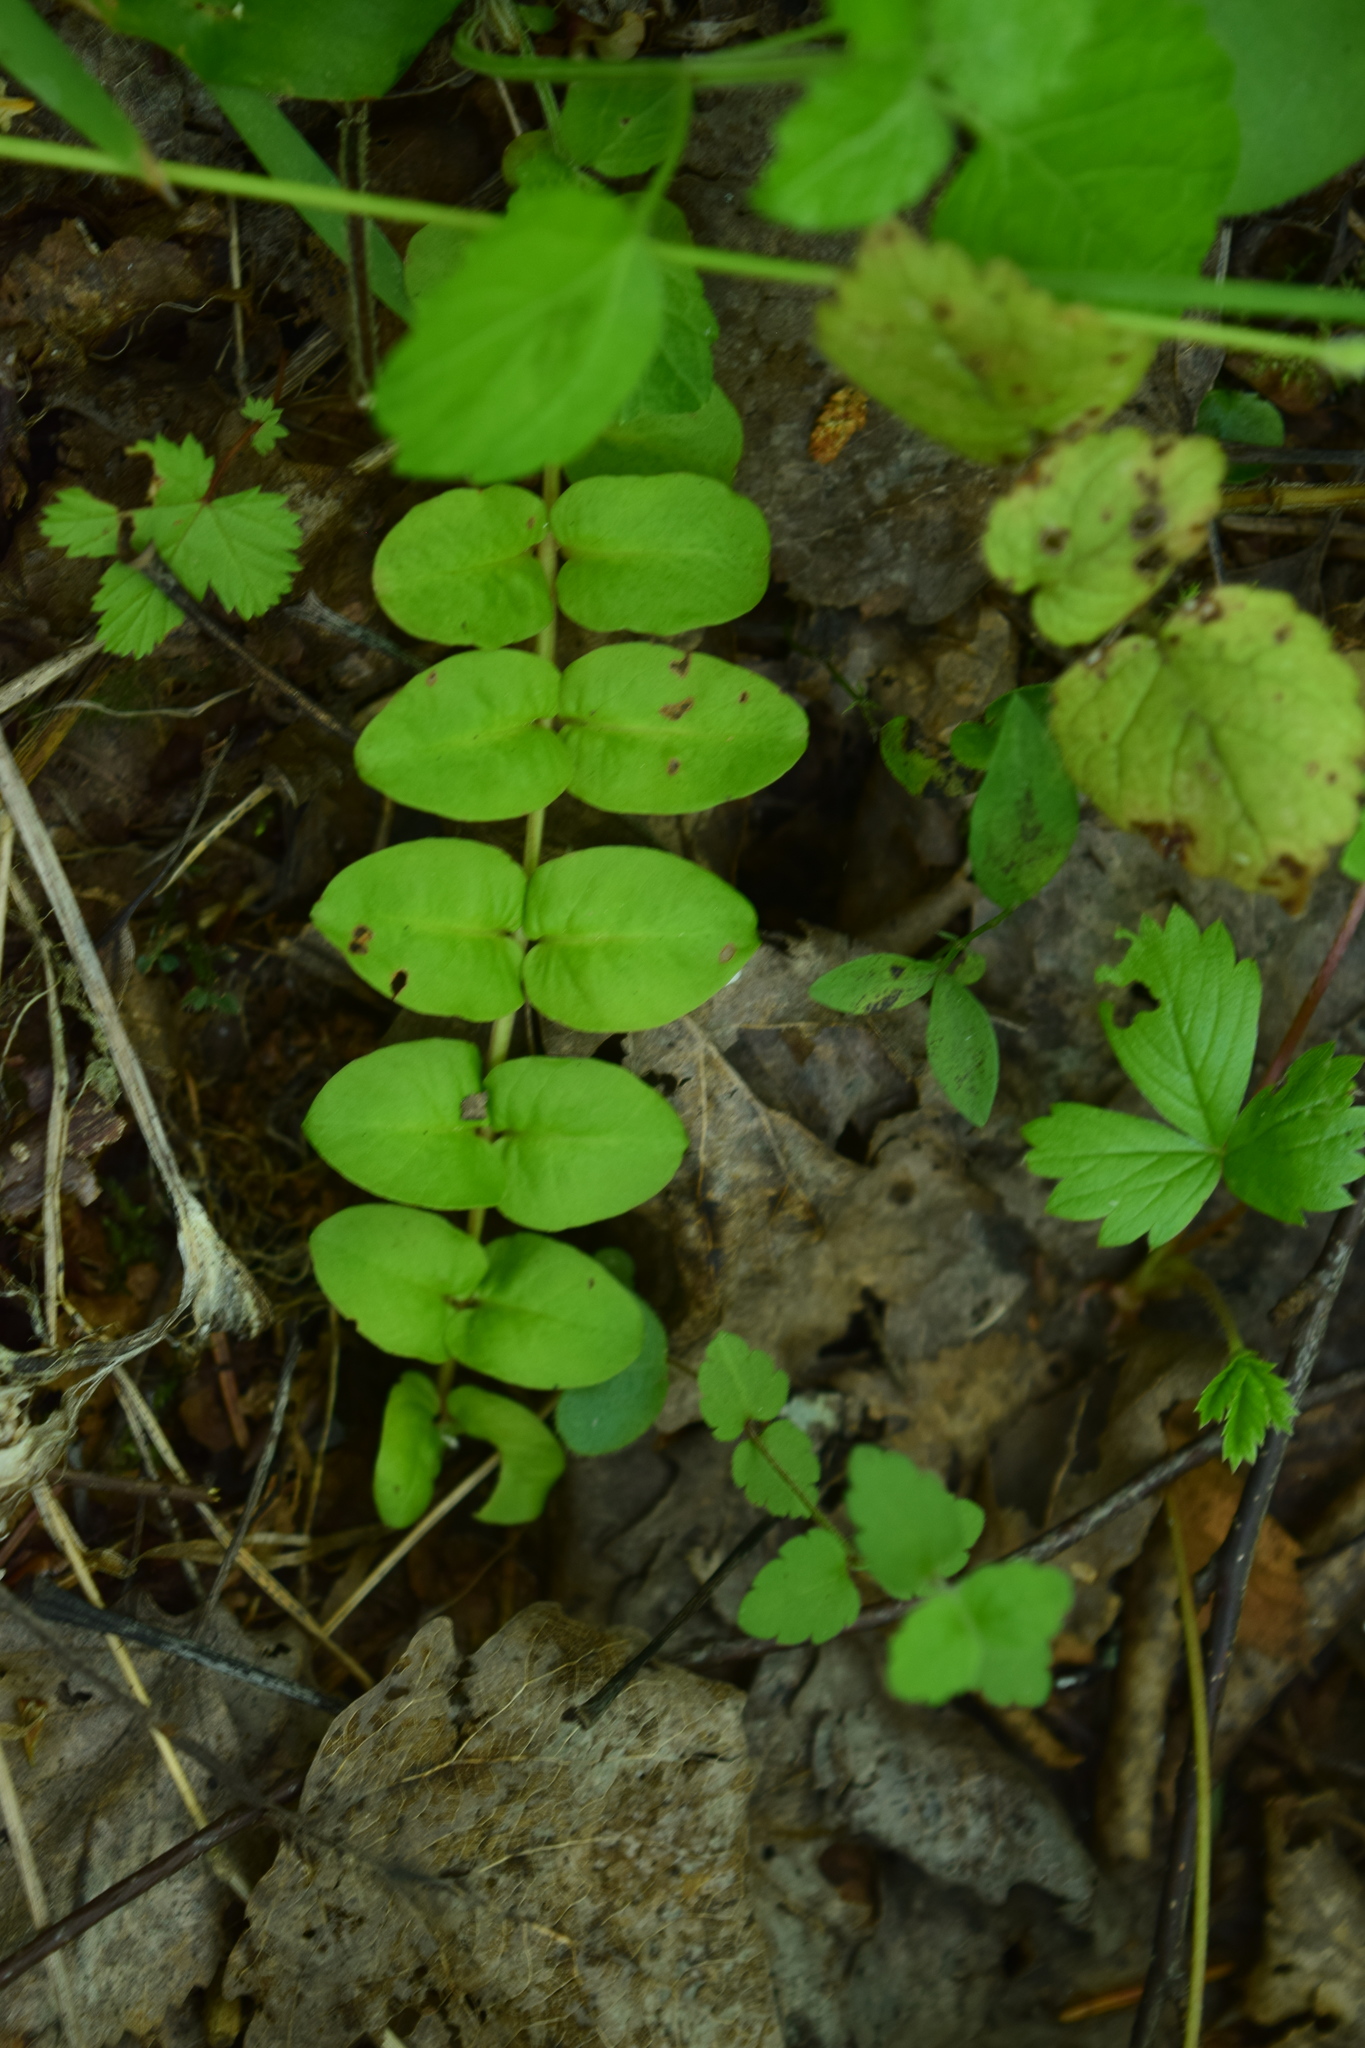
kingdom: Plantae
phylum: Tracheophyta
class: Magnoliopsida
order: Ericales
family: Primulaceae
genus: Lysimachia
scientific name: Lysimachia nummularia
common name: Moneywort
